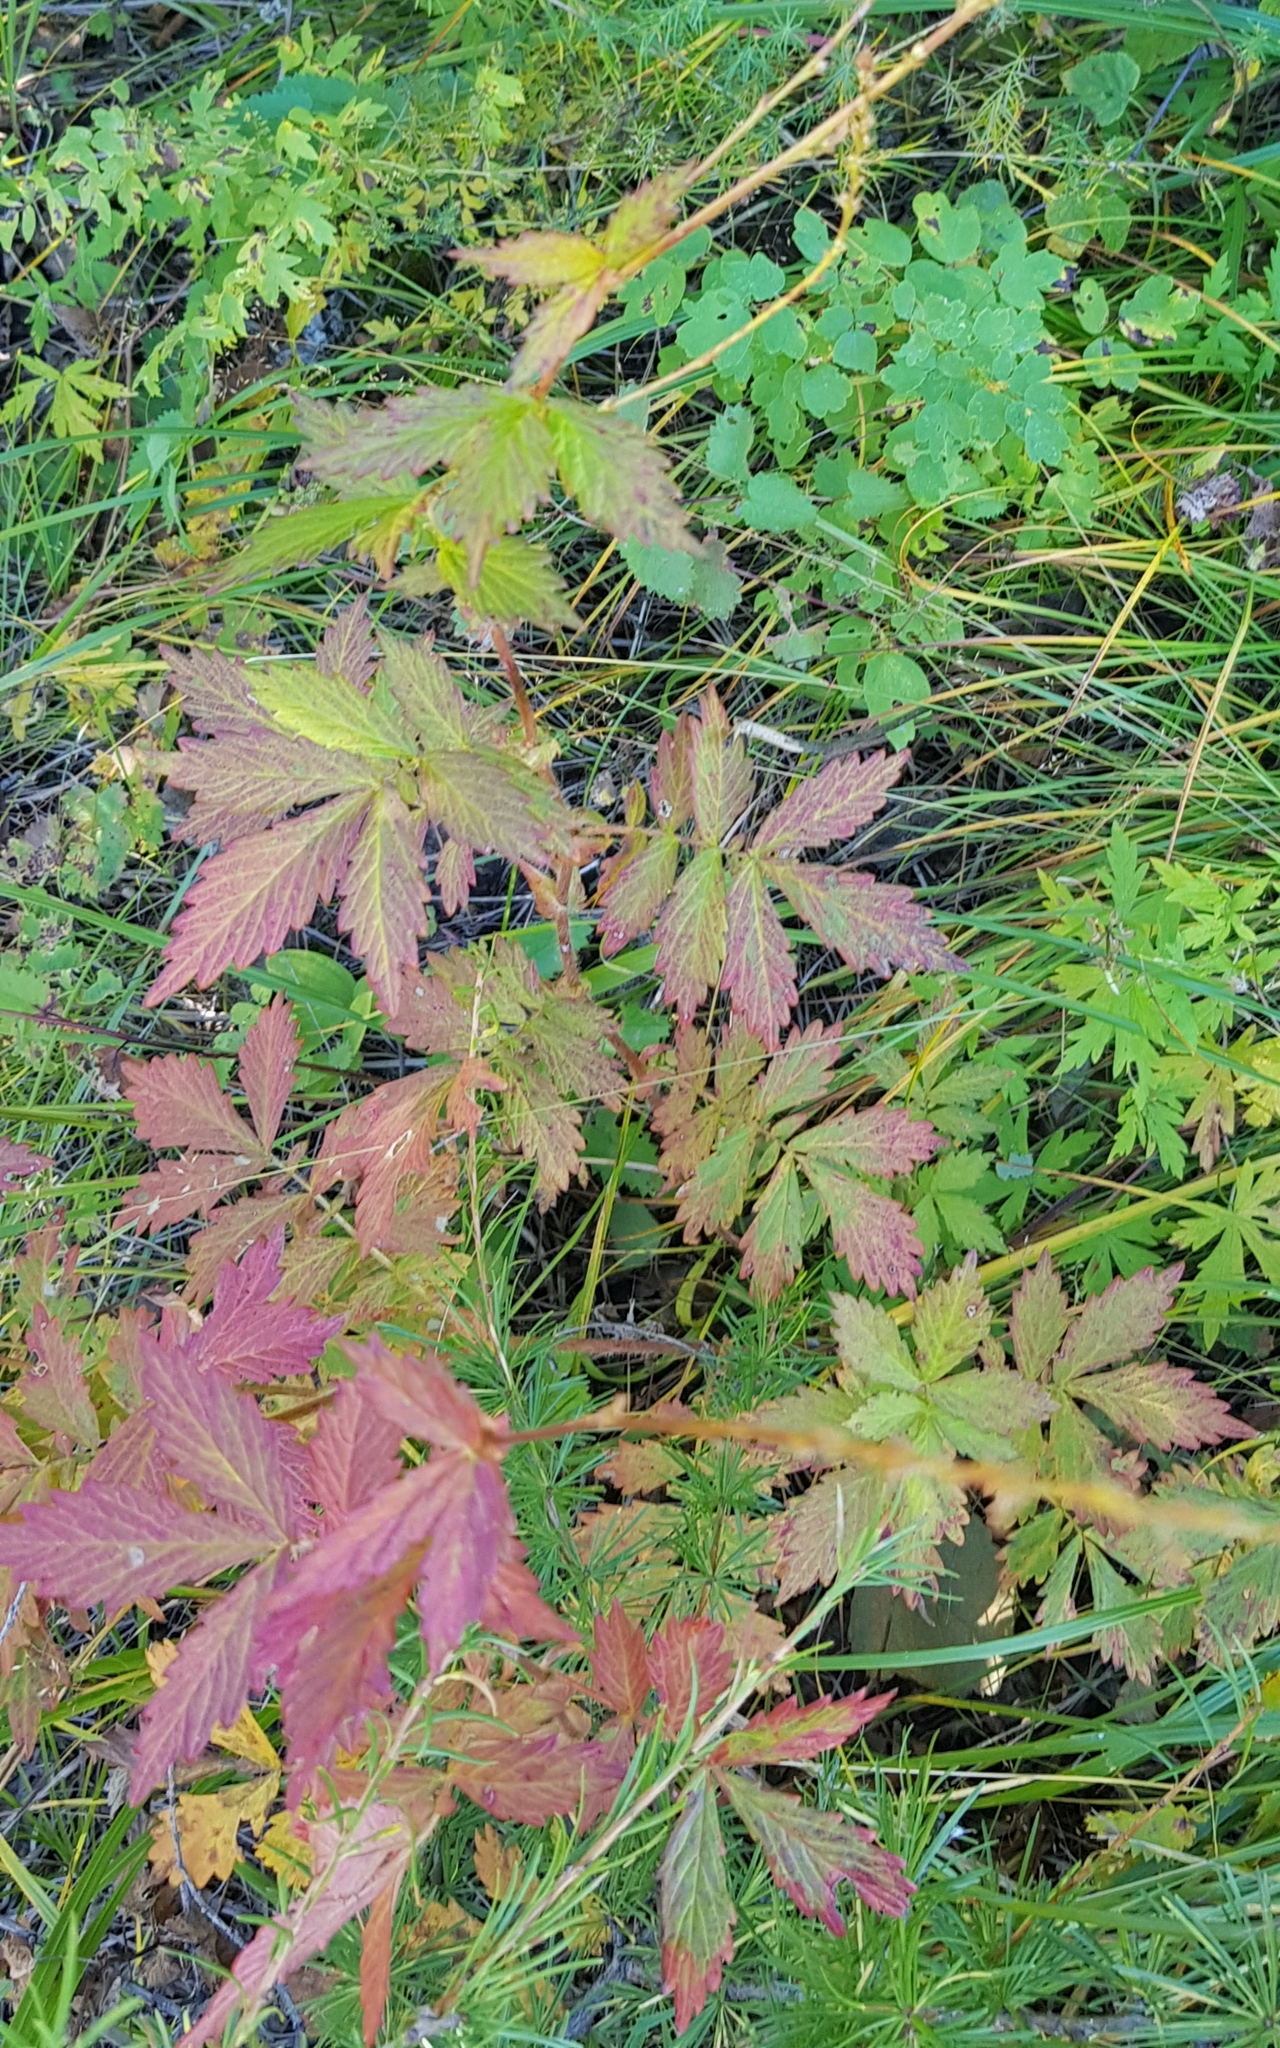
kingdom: Plantae
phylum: Tracheophyta
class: Magnoliopsida
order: Rosales
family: Rosaceae
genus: Agrimonia
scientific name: Agrimonia pilosa
